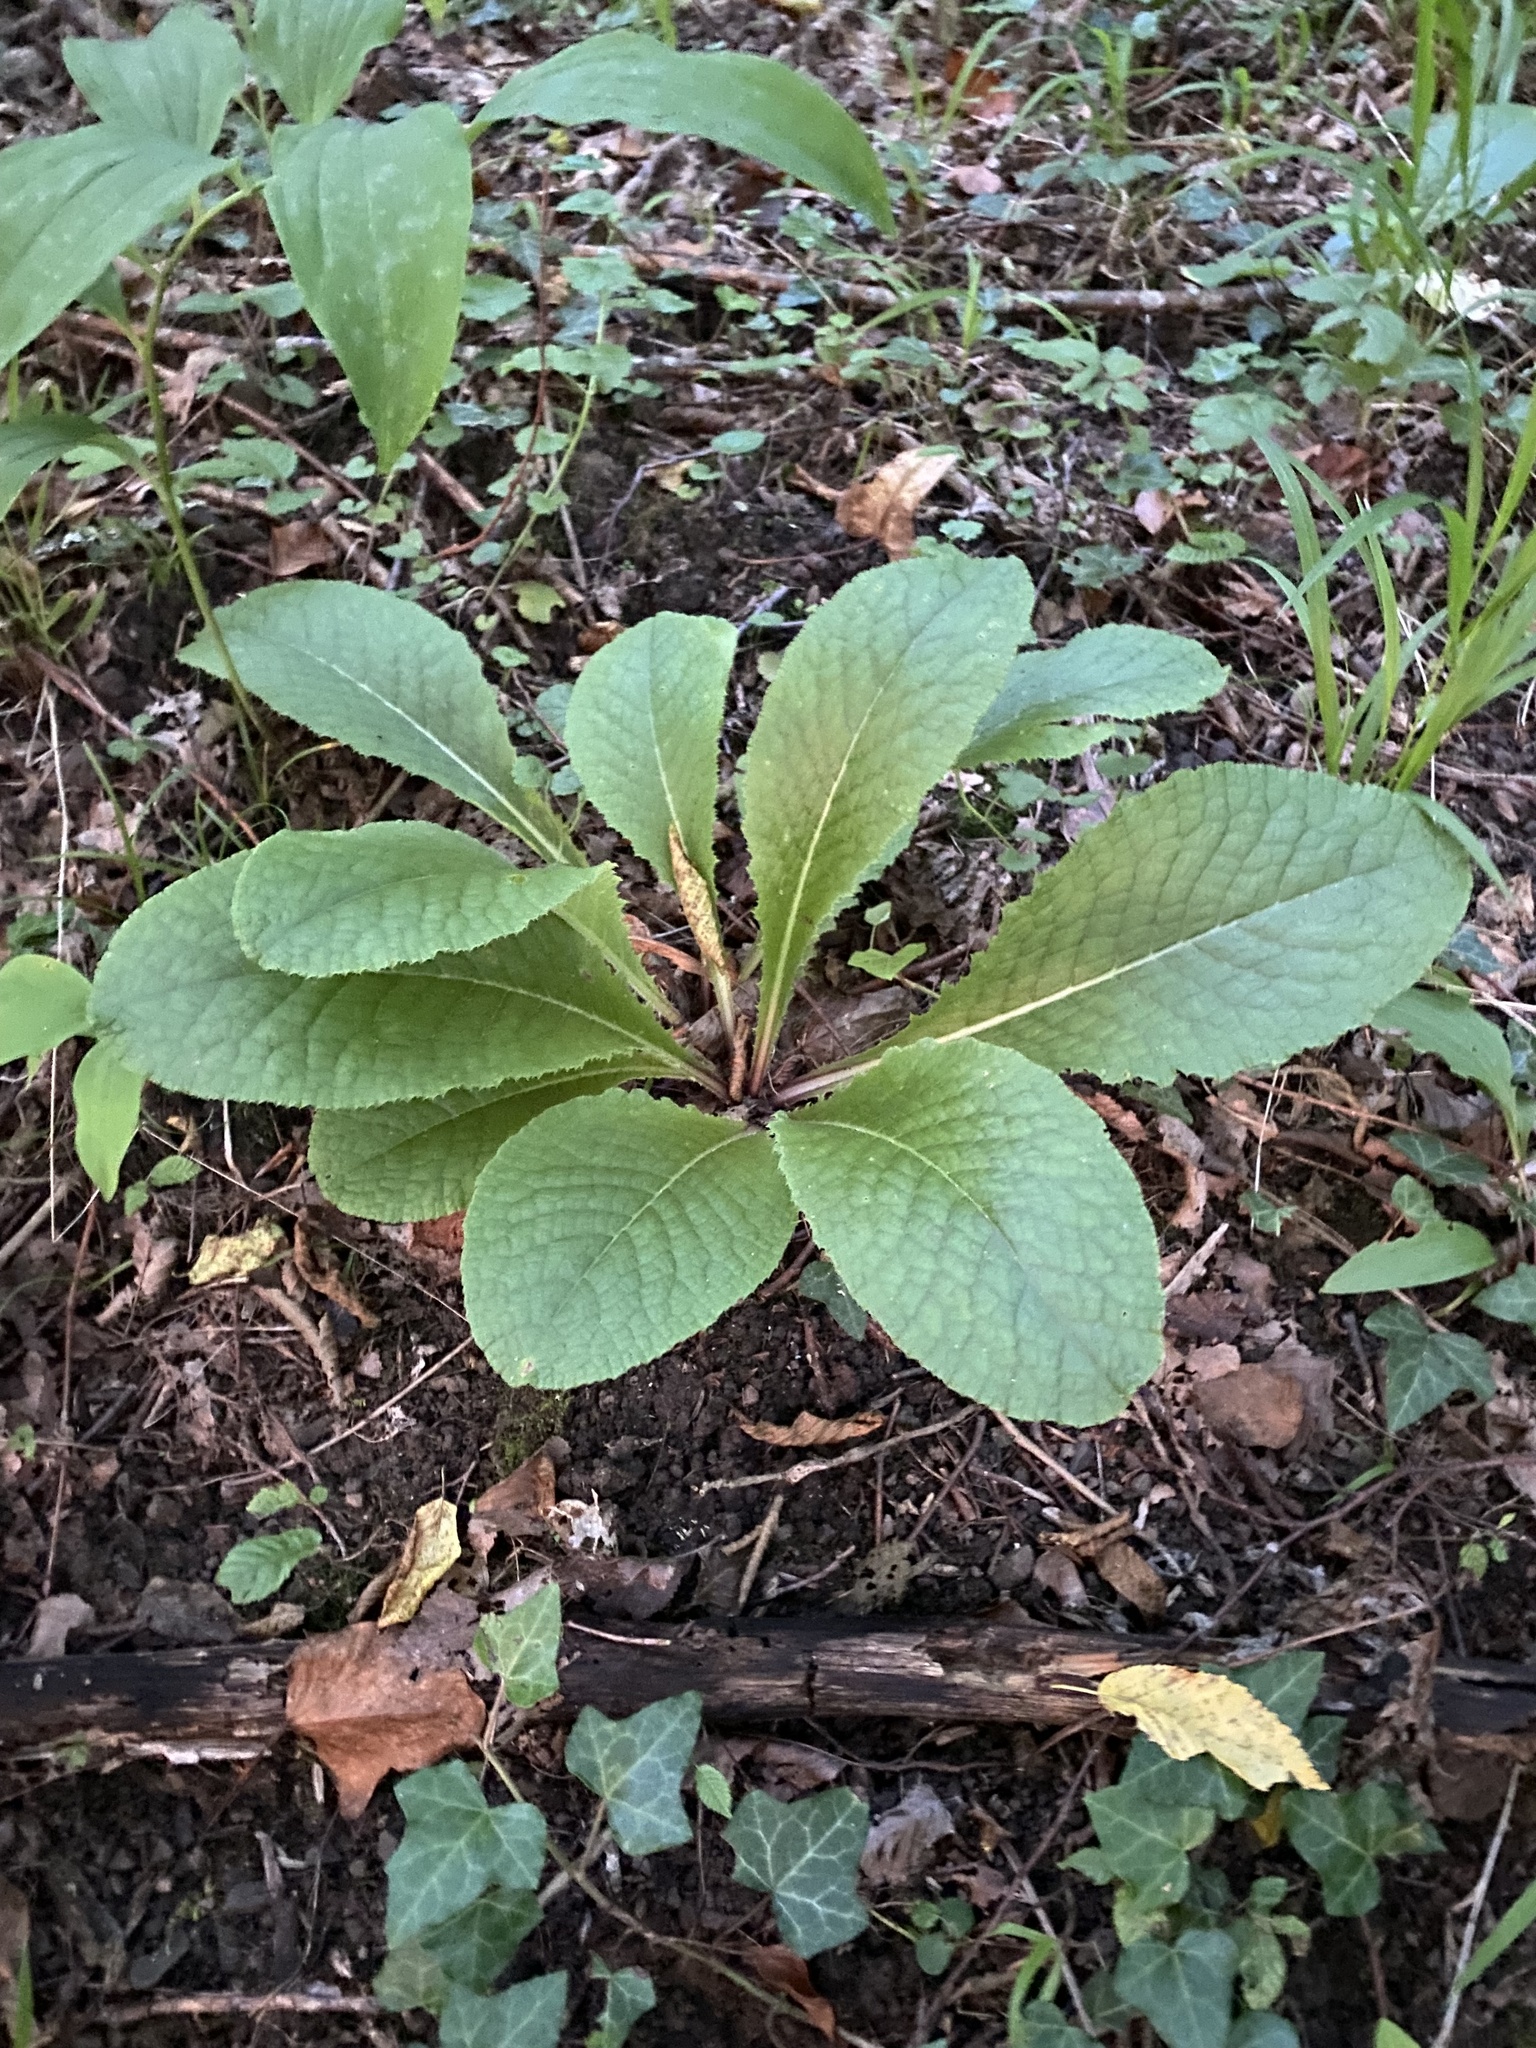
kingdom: Plantae
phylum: Tracheophyta
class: Magnoliopsida
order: Ericales
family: Primulaceae
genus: Primula
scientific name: Primula vulgaris
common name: Primrose
